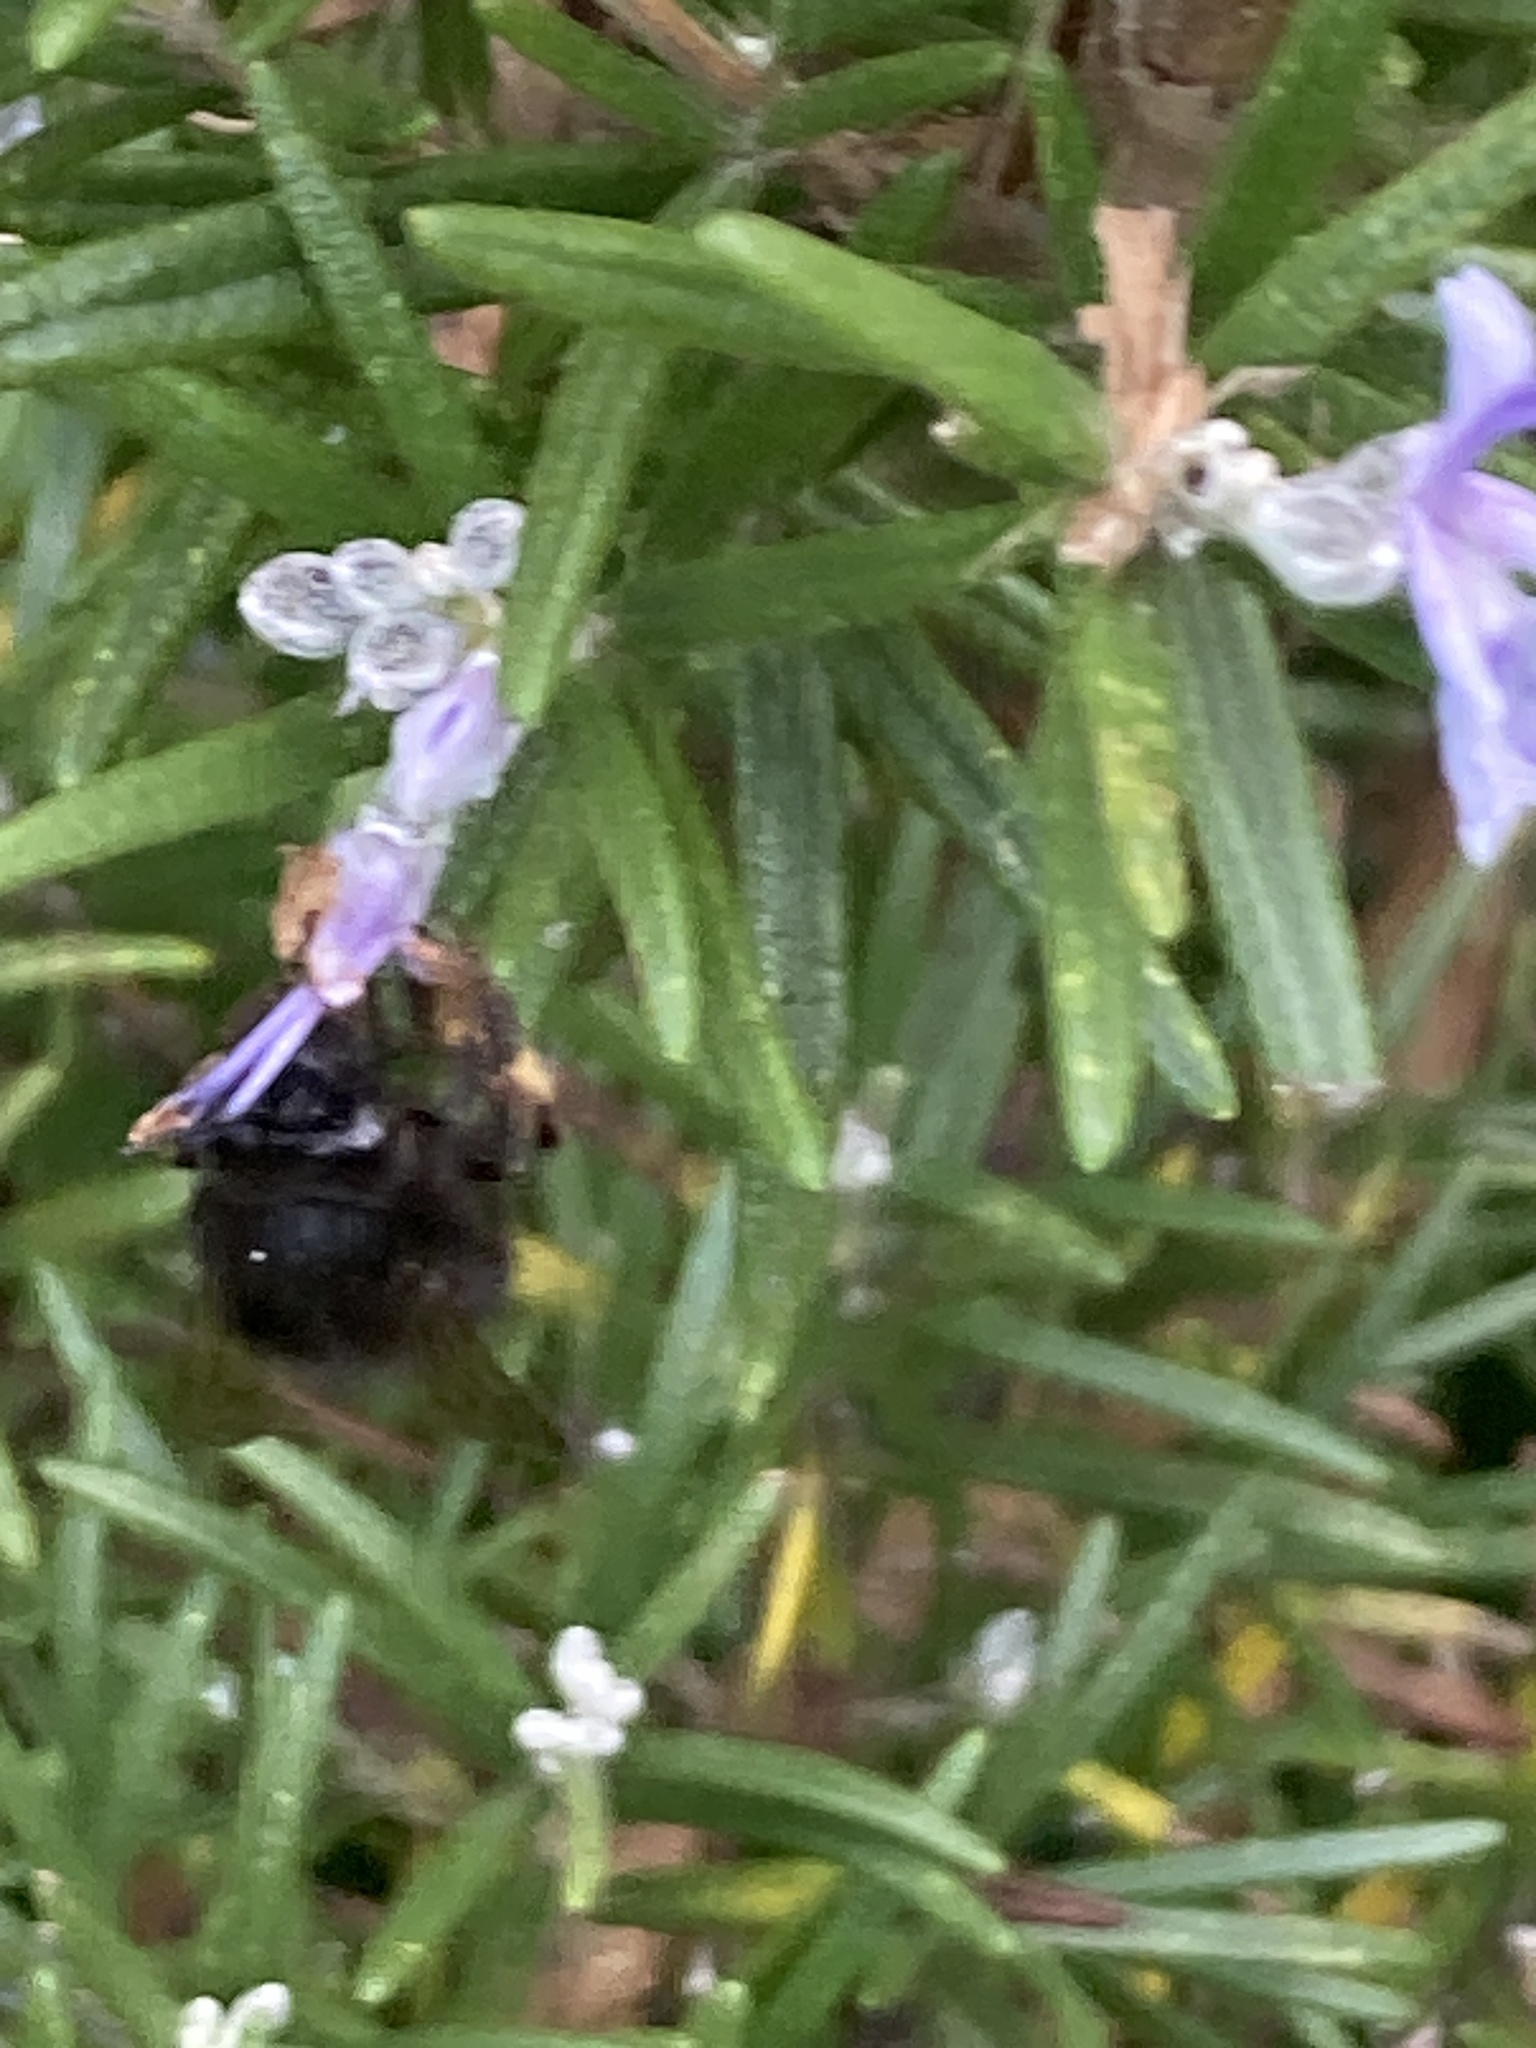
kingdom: Animalia
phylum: Arthropoda
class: Insecta
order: Hymenoptera
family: Apidae
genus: Anthophora
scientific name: Anthophora plumipes
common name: Hairy-footed flower bee
